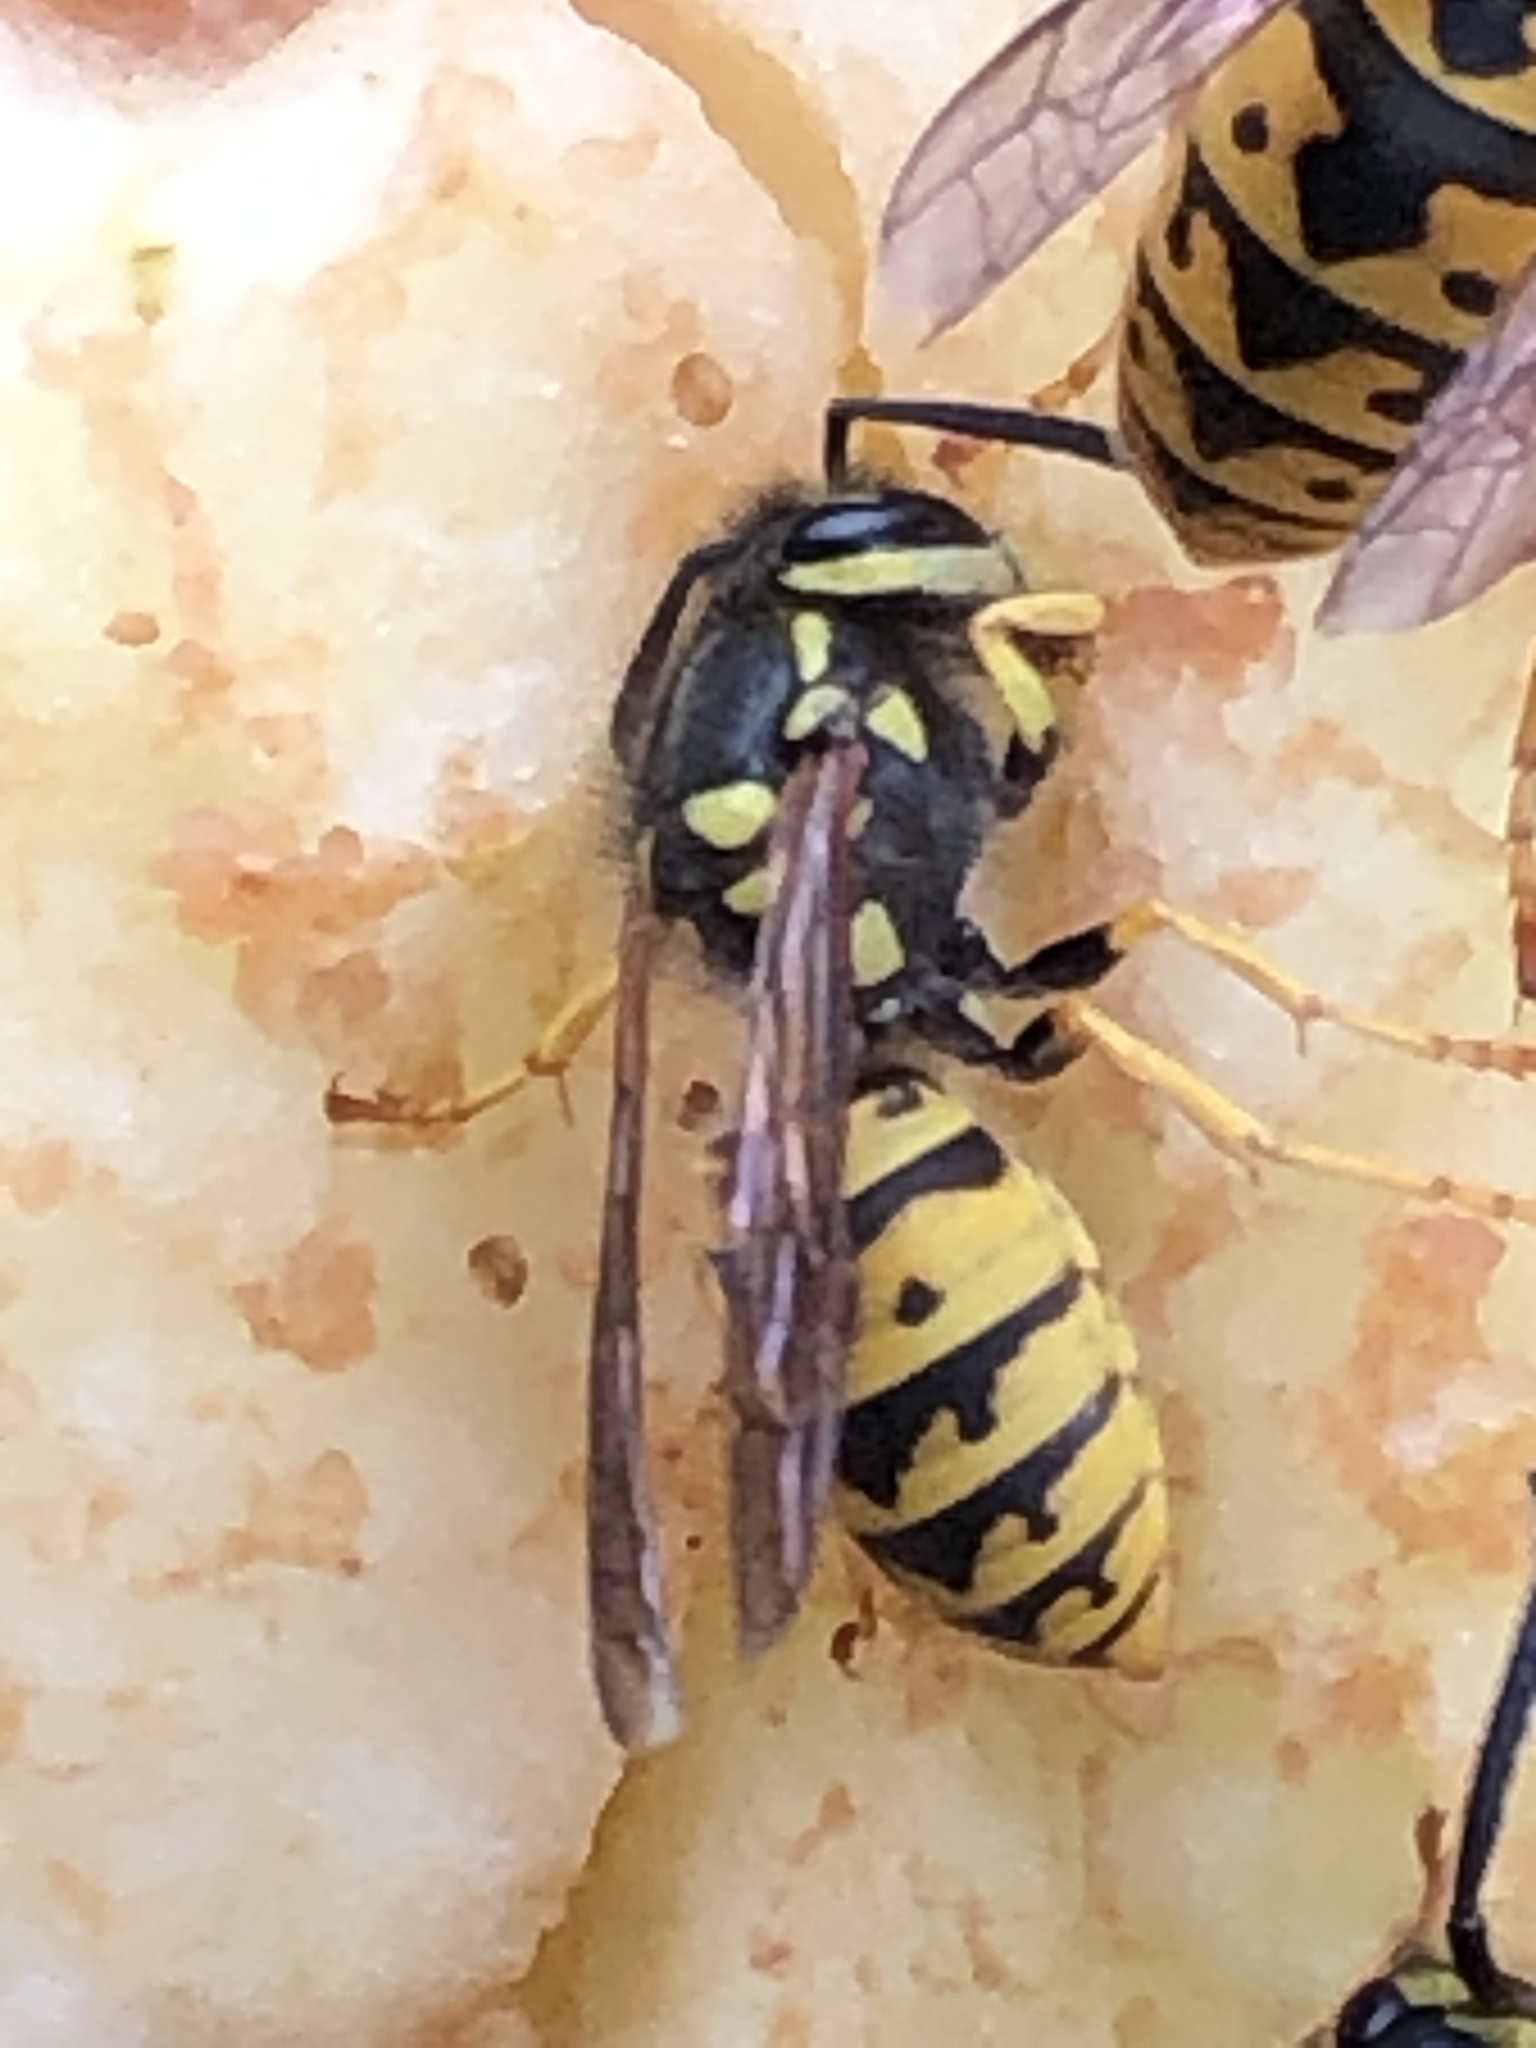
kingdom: Animalia
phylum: Arthropoda
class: Insecta
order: Hymenoptera
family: Vespidae
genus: Vespula
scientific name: Vespula germanica
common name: German wasp
